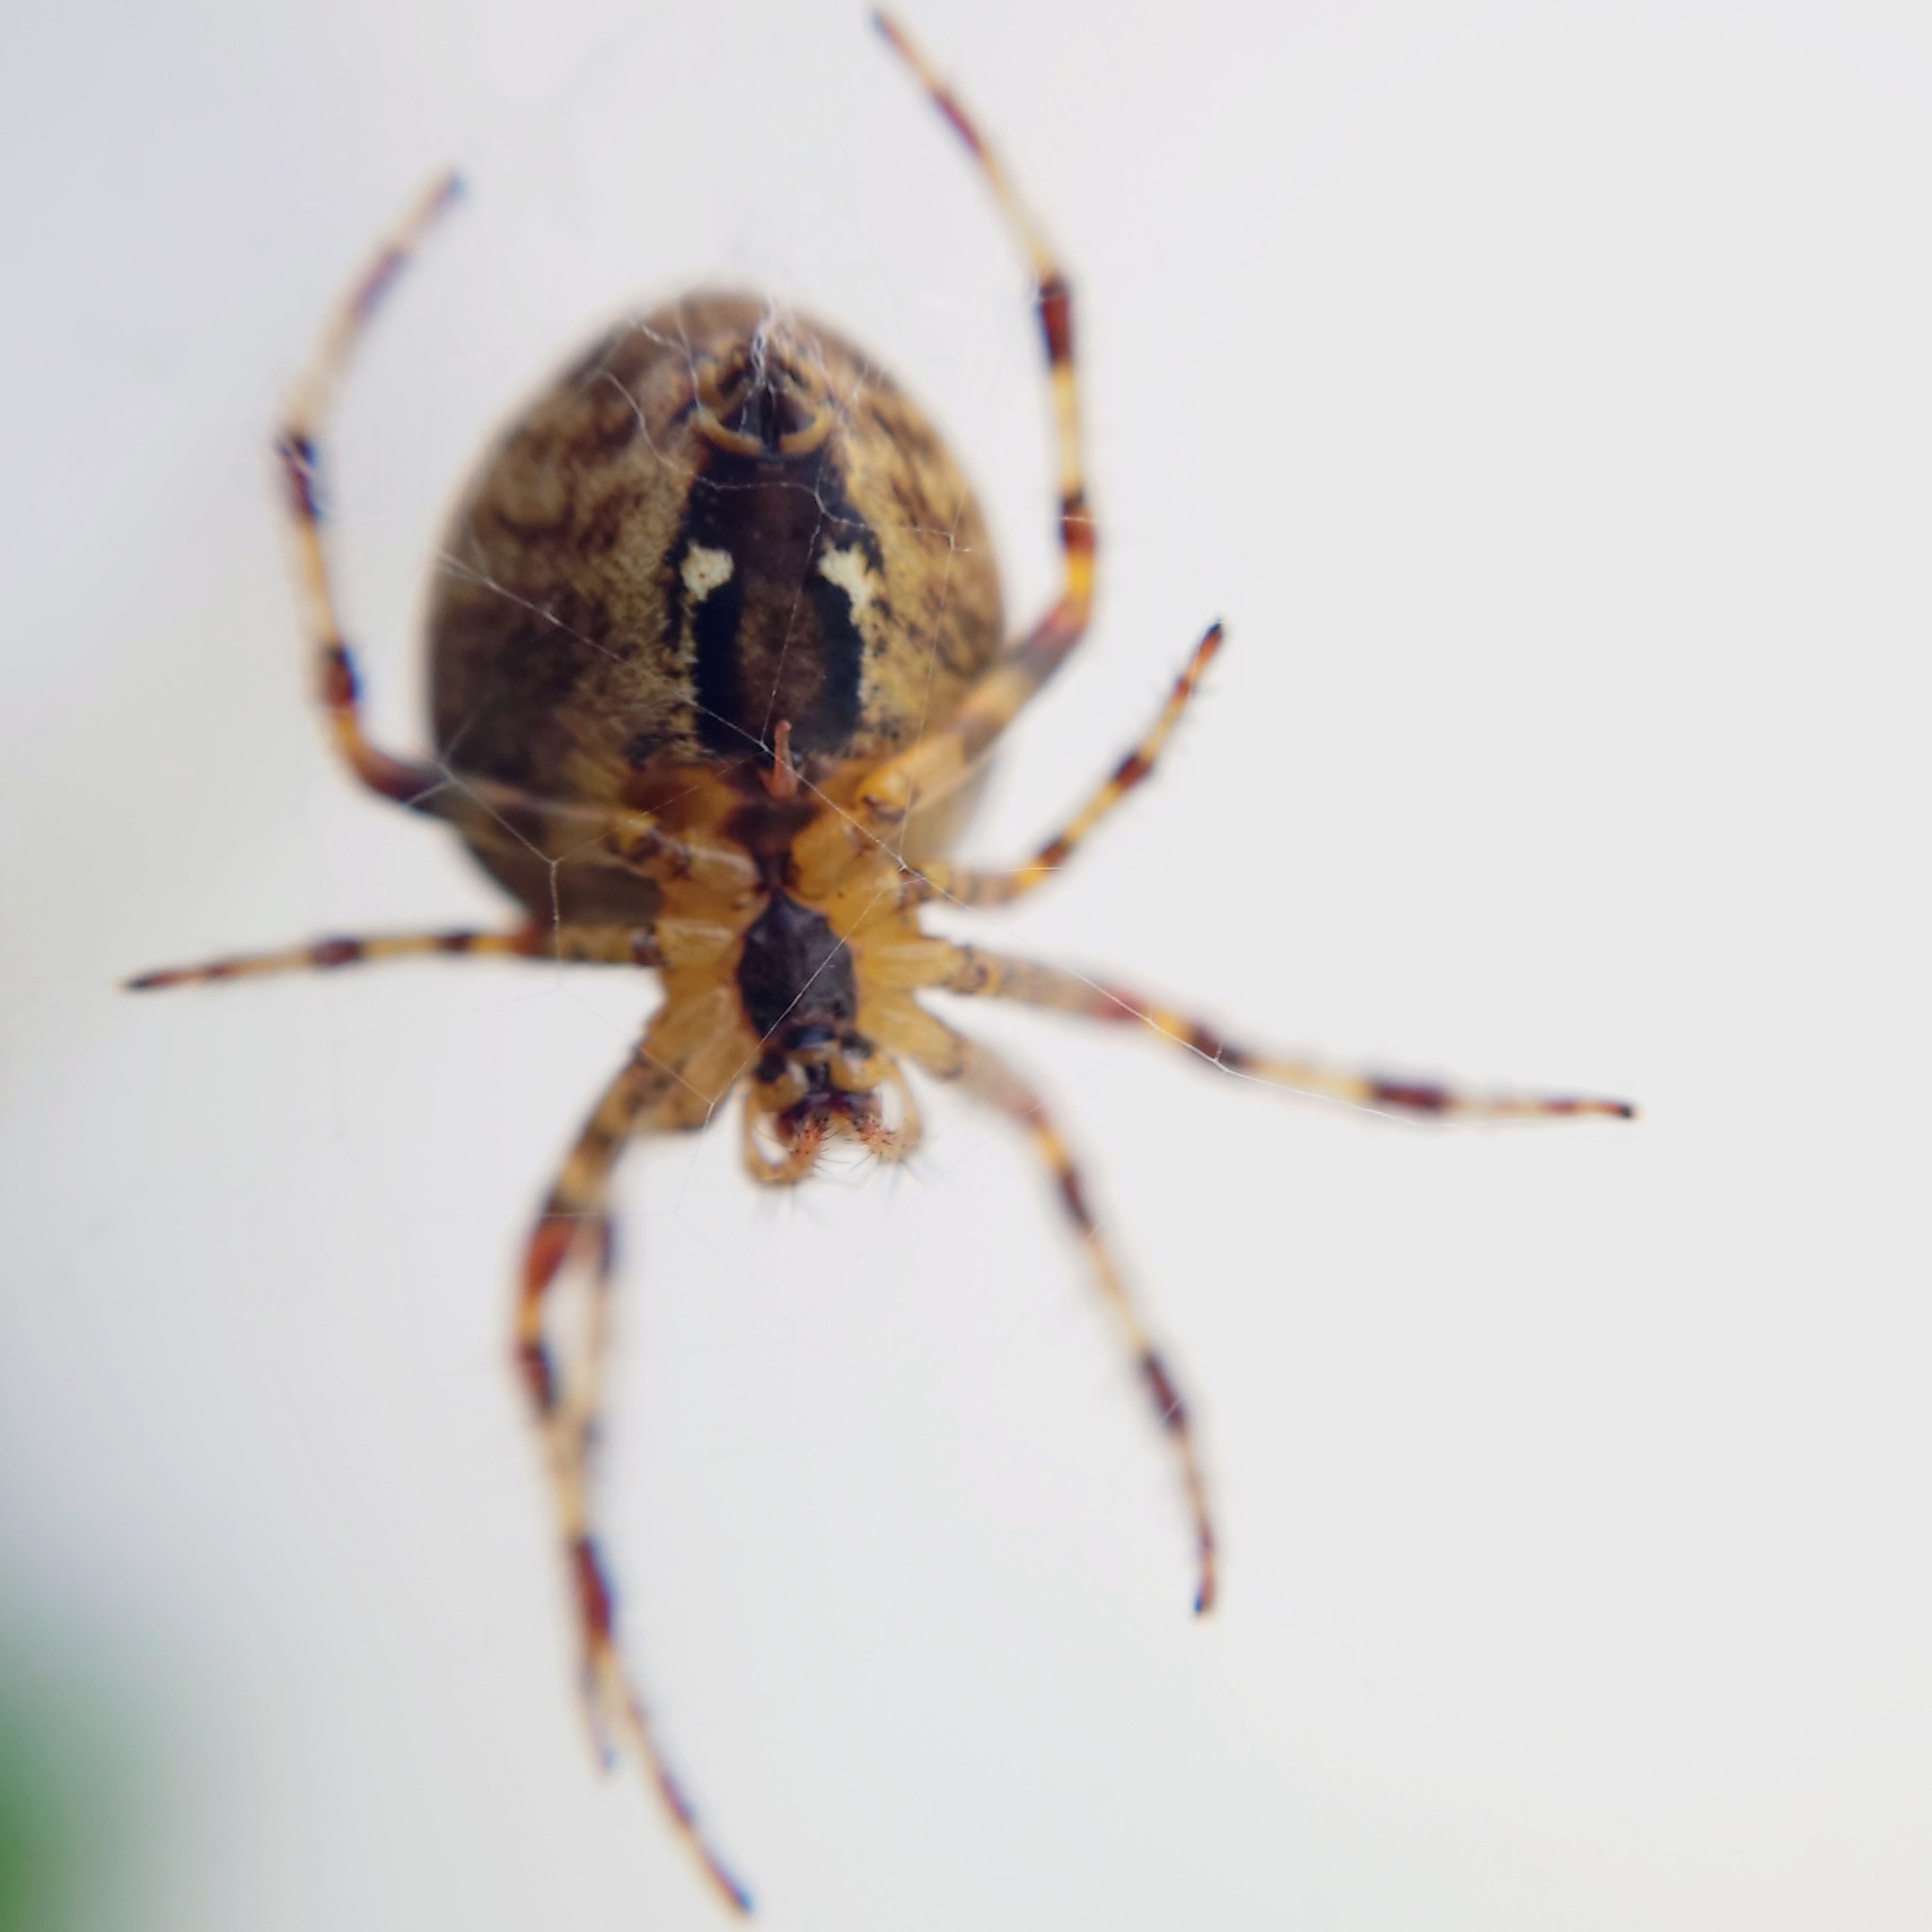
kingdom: Animalia
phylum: Arthropoda
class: Arachnida
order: Araneae
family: Araneidae
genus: Araneus
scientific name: Araneus diadematus
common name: Cross orbweaver
